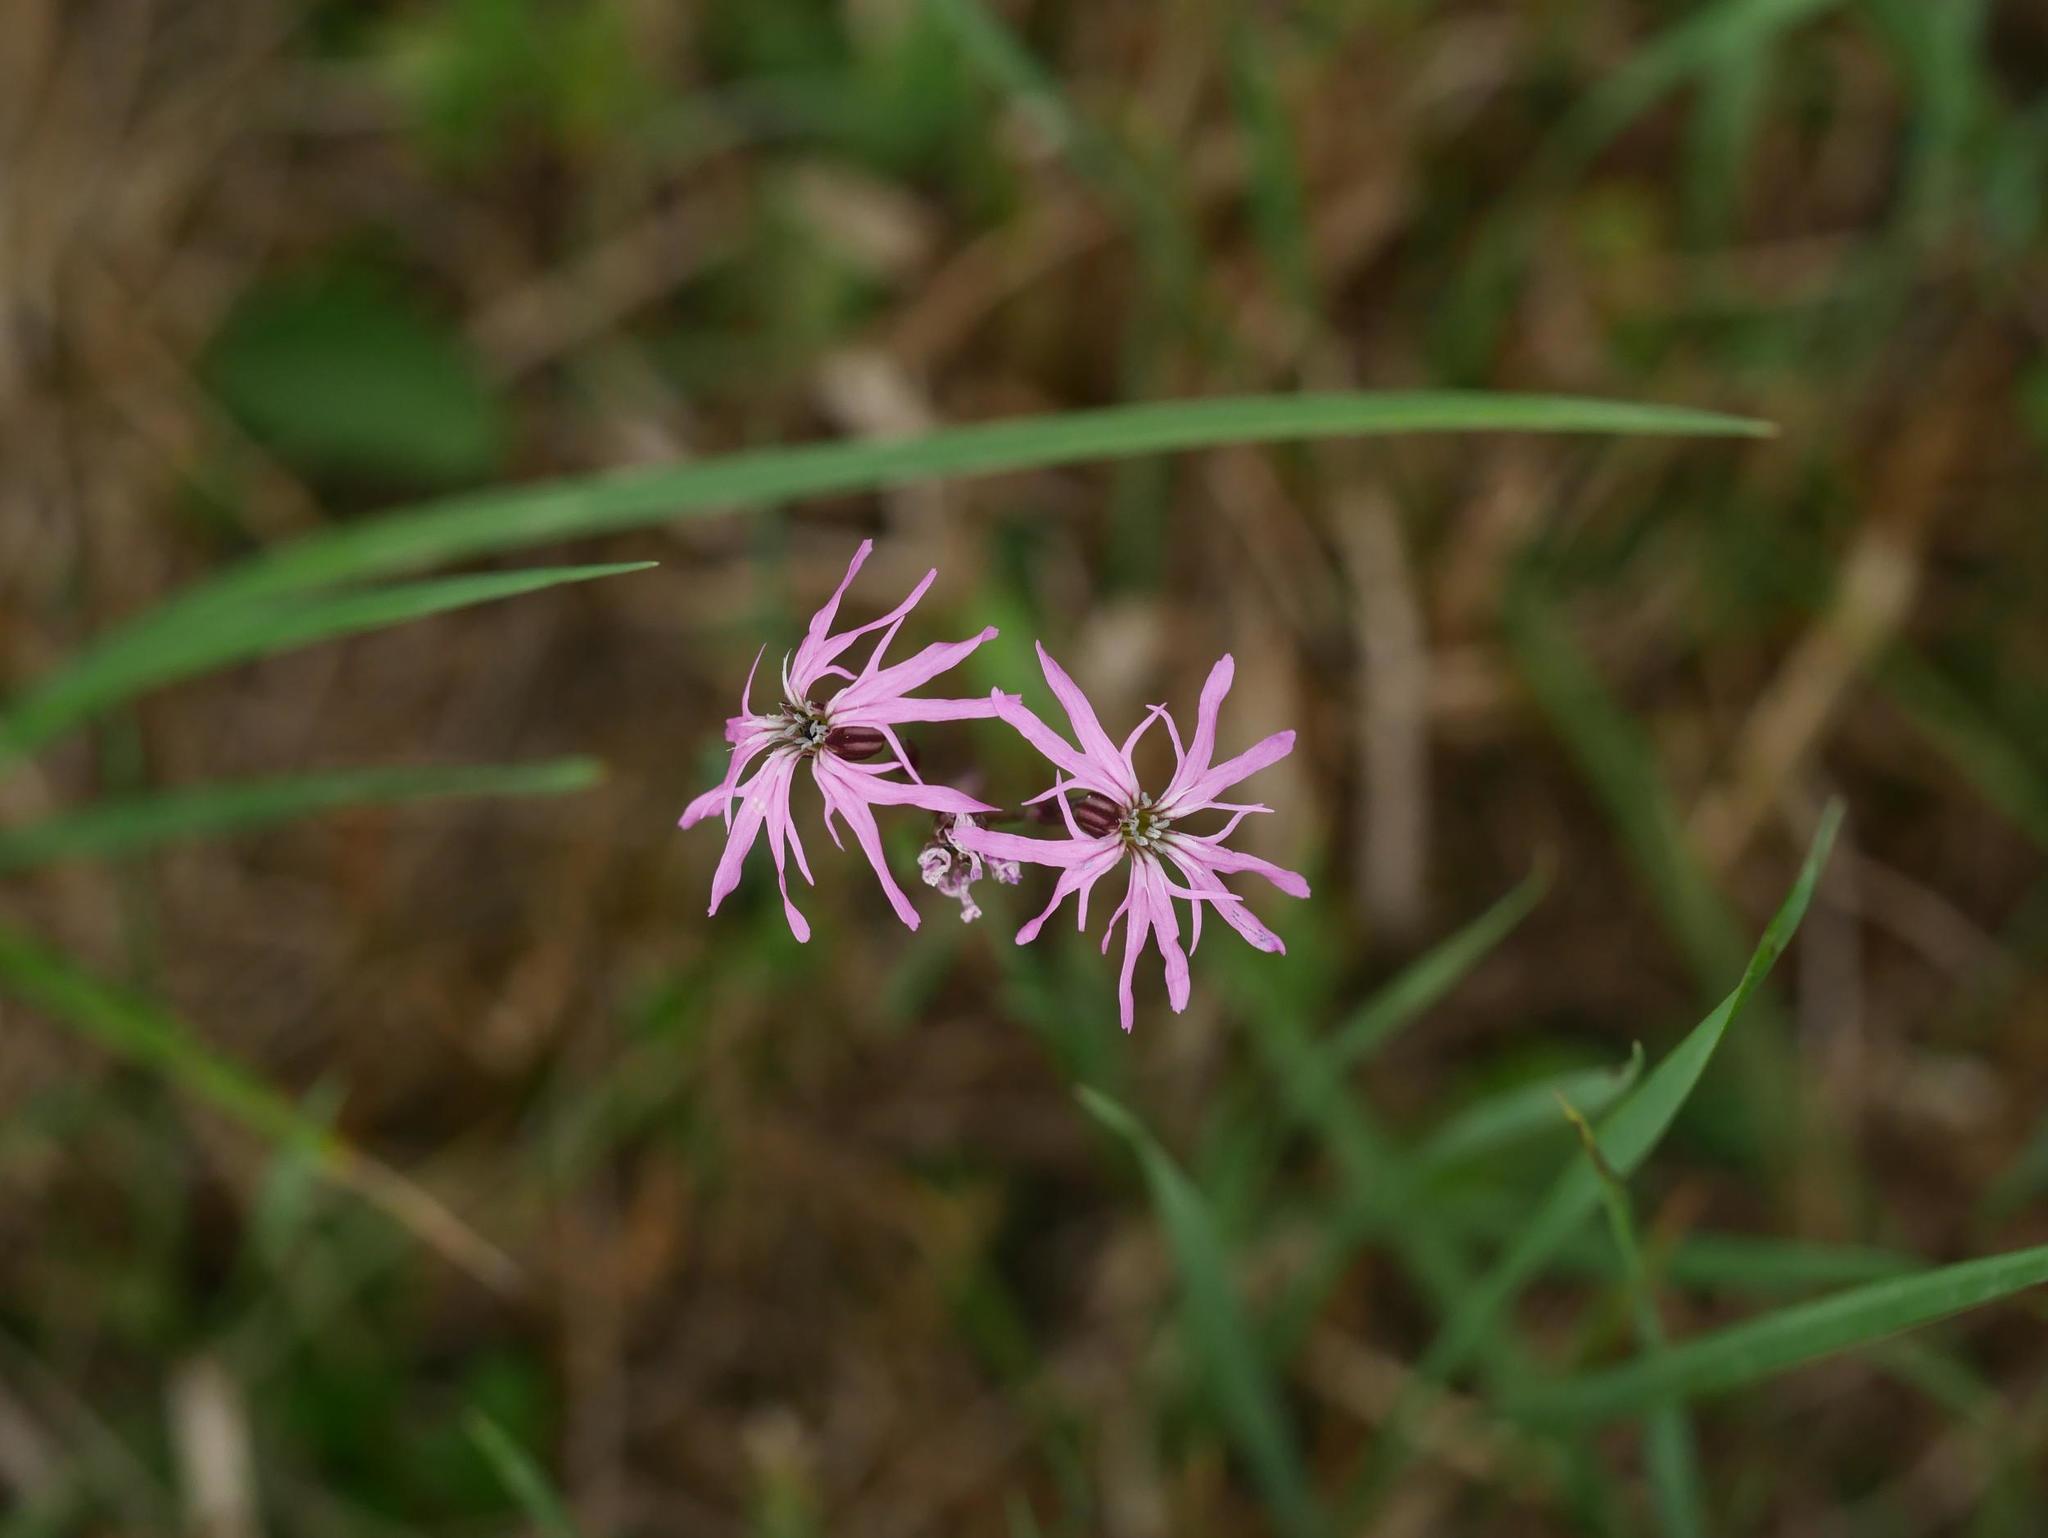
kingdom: Plantae
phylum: Tracheophyta
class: Magnoliopsida
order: Caryophyllales
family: Caryophyllaceae
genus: Silene
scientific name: Silene flos-cuculi
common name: Ragged-robin
